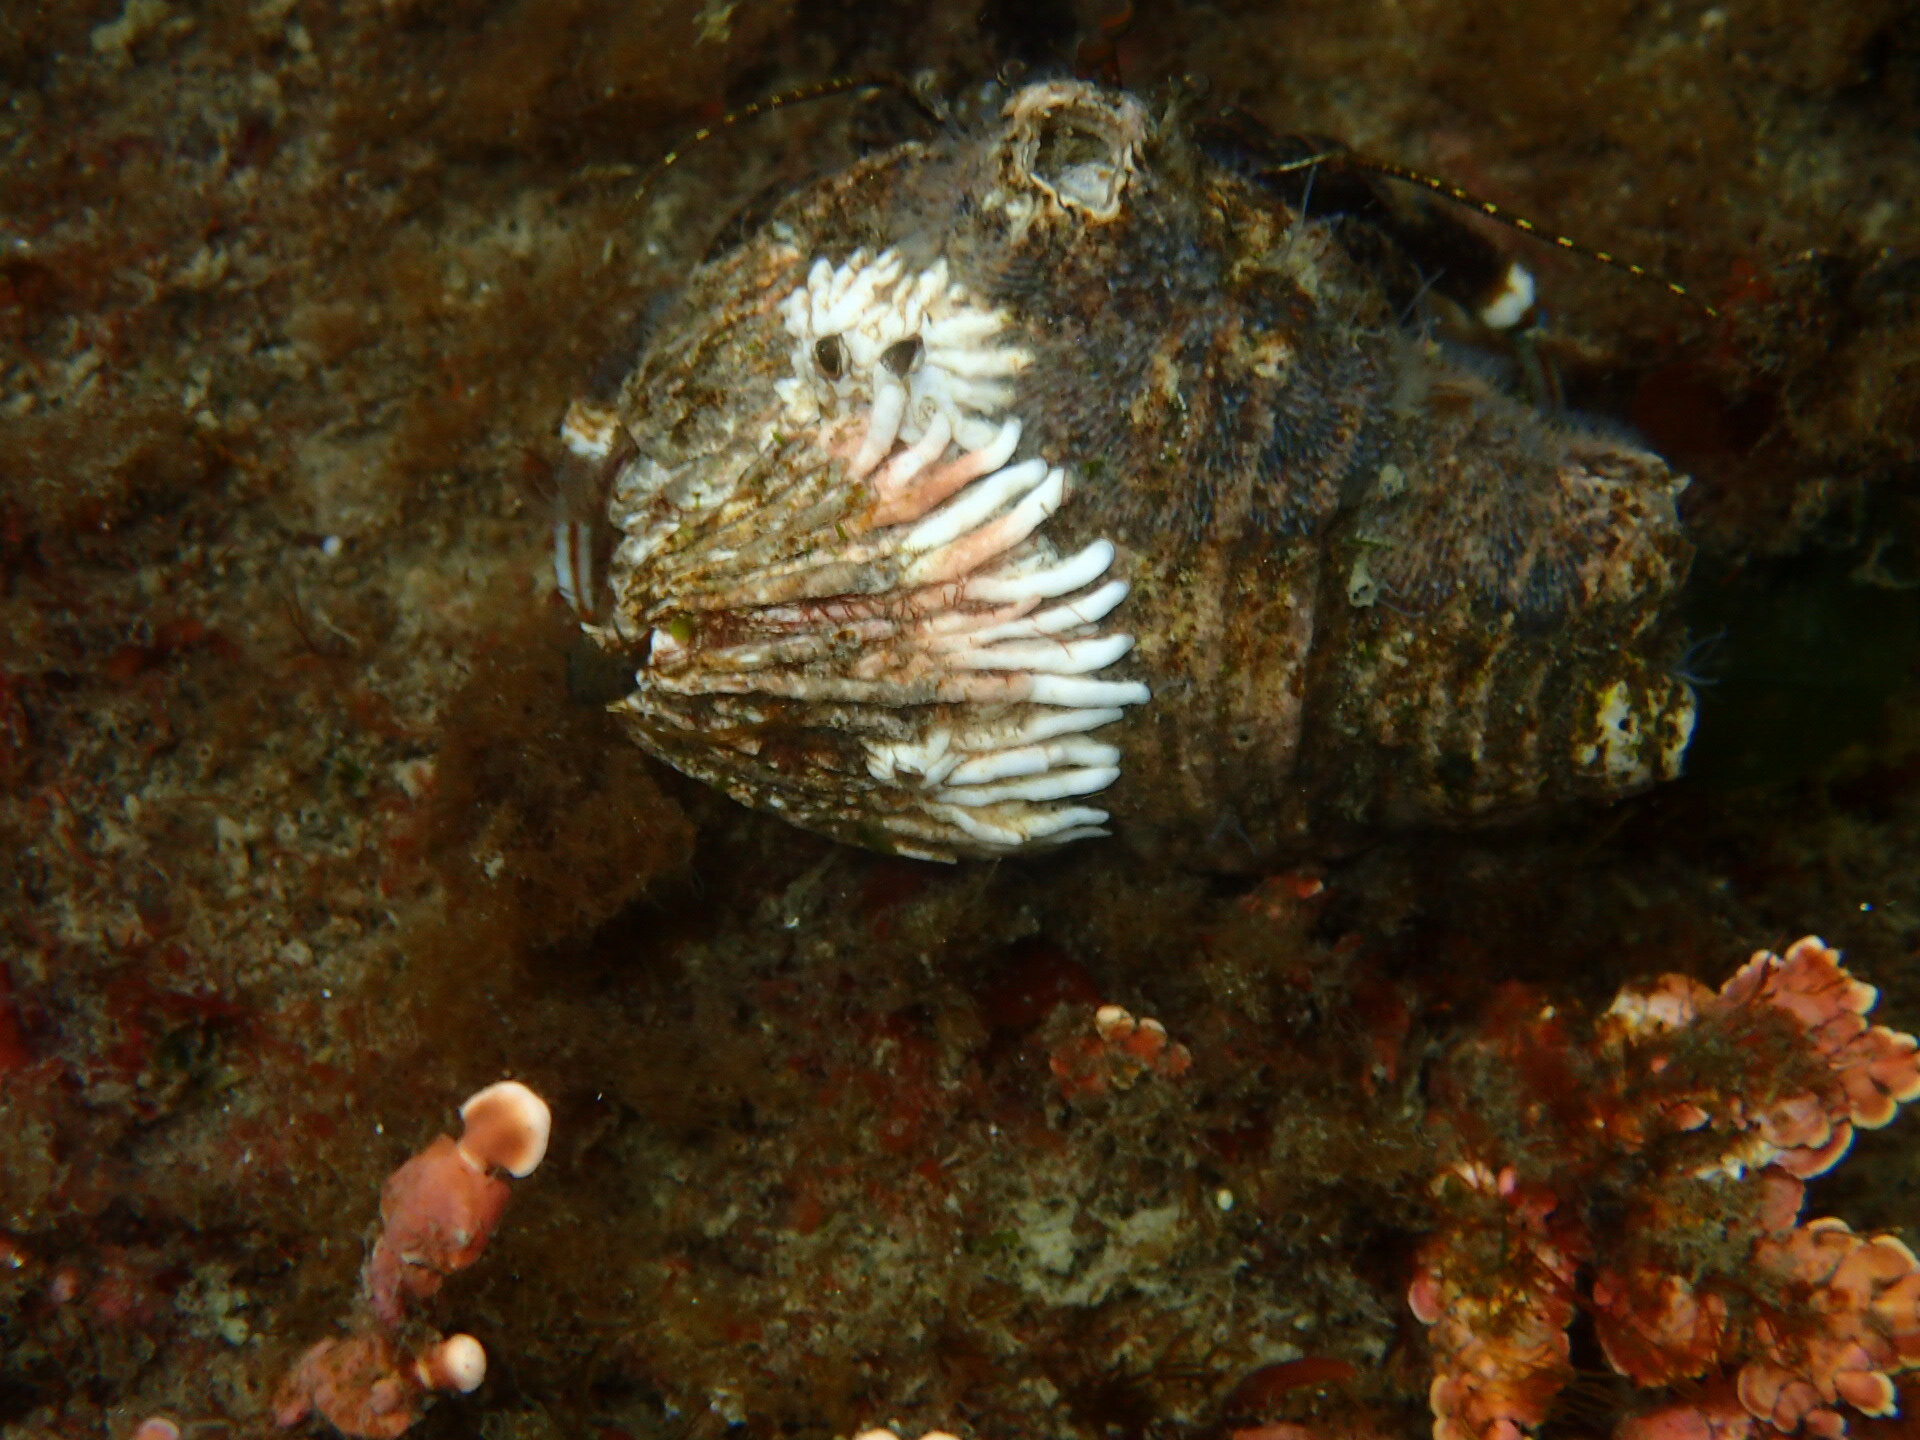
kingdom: Animalia
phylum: Arthropoda
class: Maxillopoda
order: Sessilia
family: Archaeobalanidae
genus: Semibalanus
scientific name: Semibalanus cariosus
